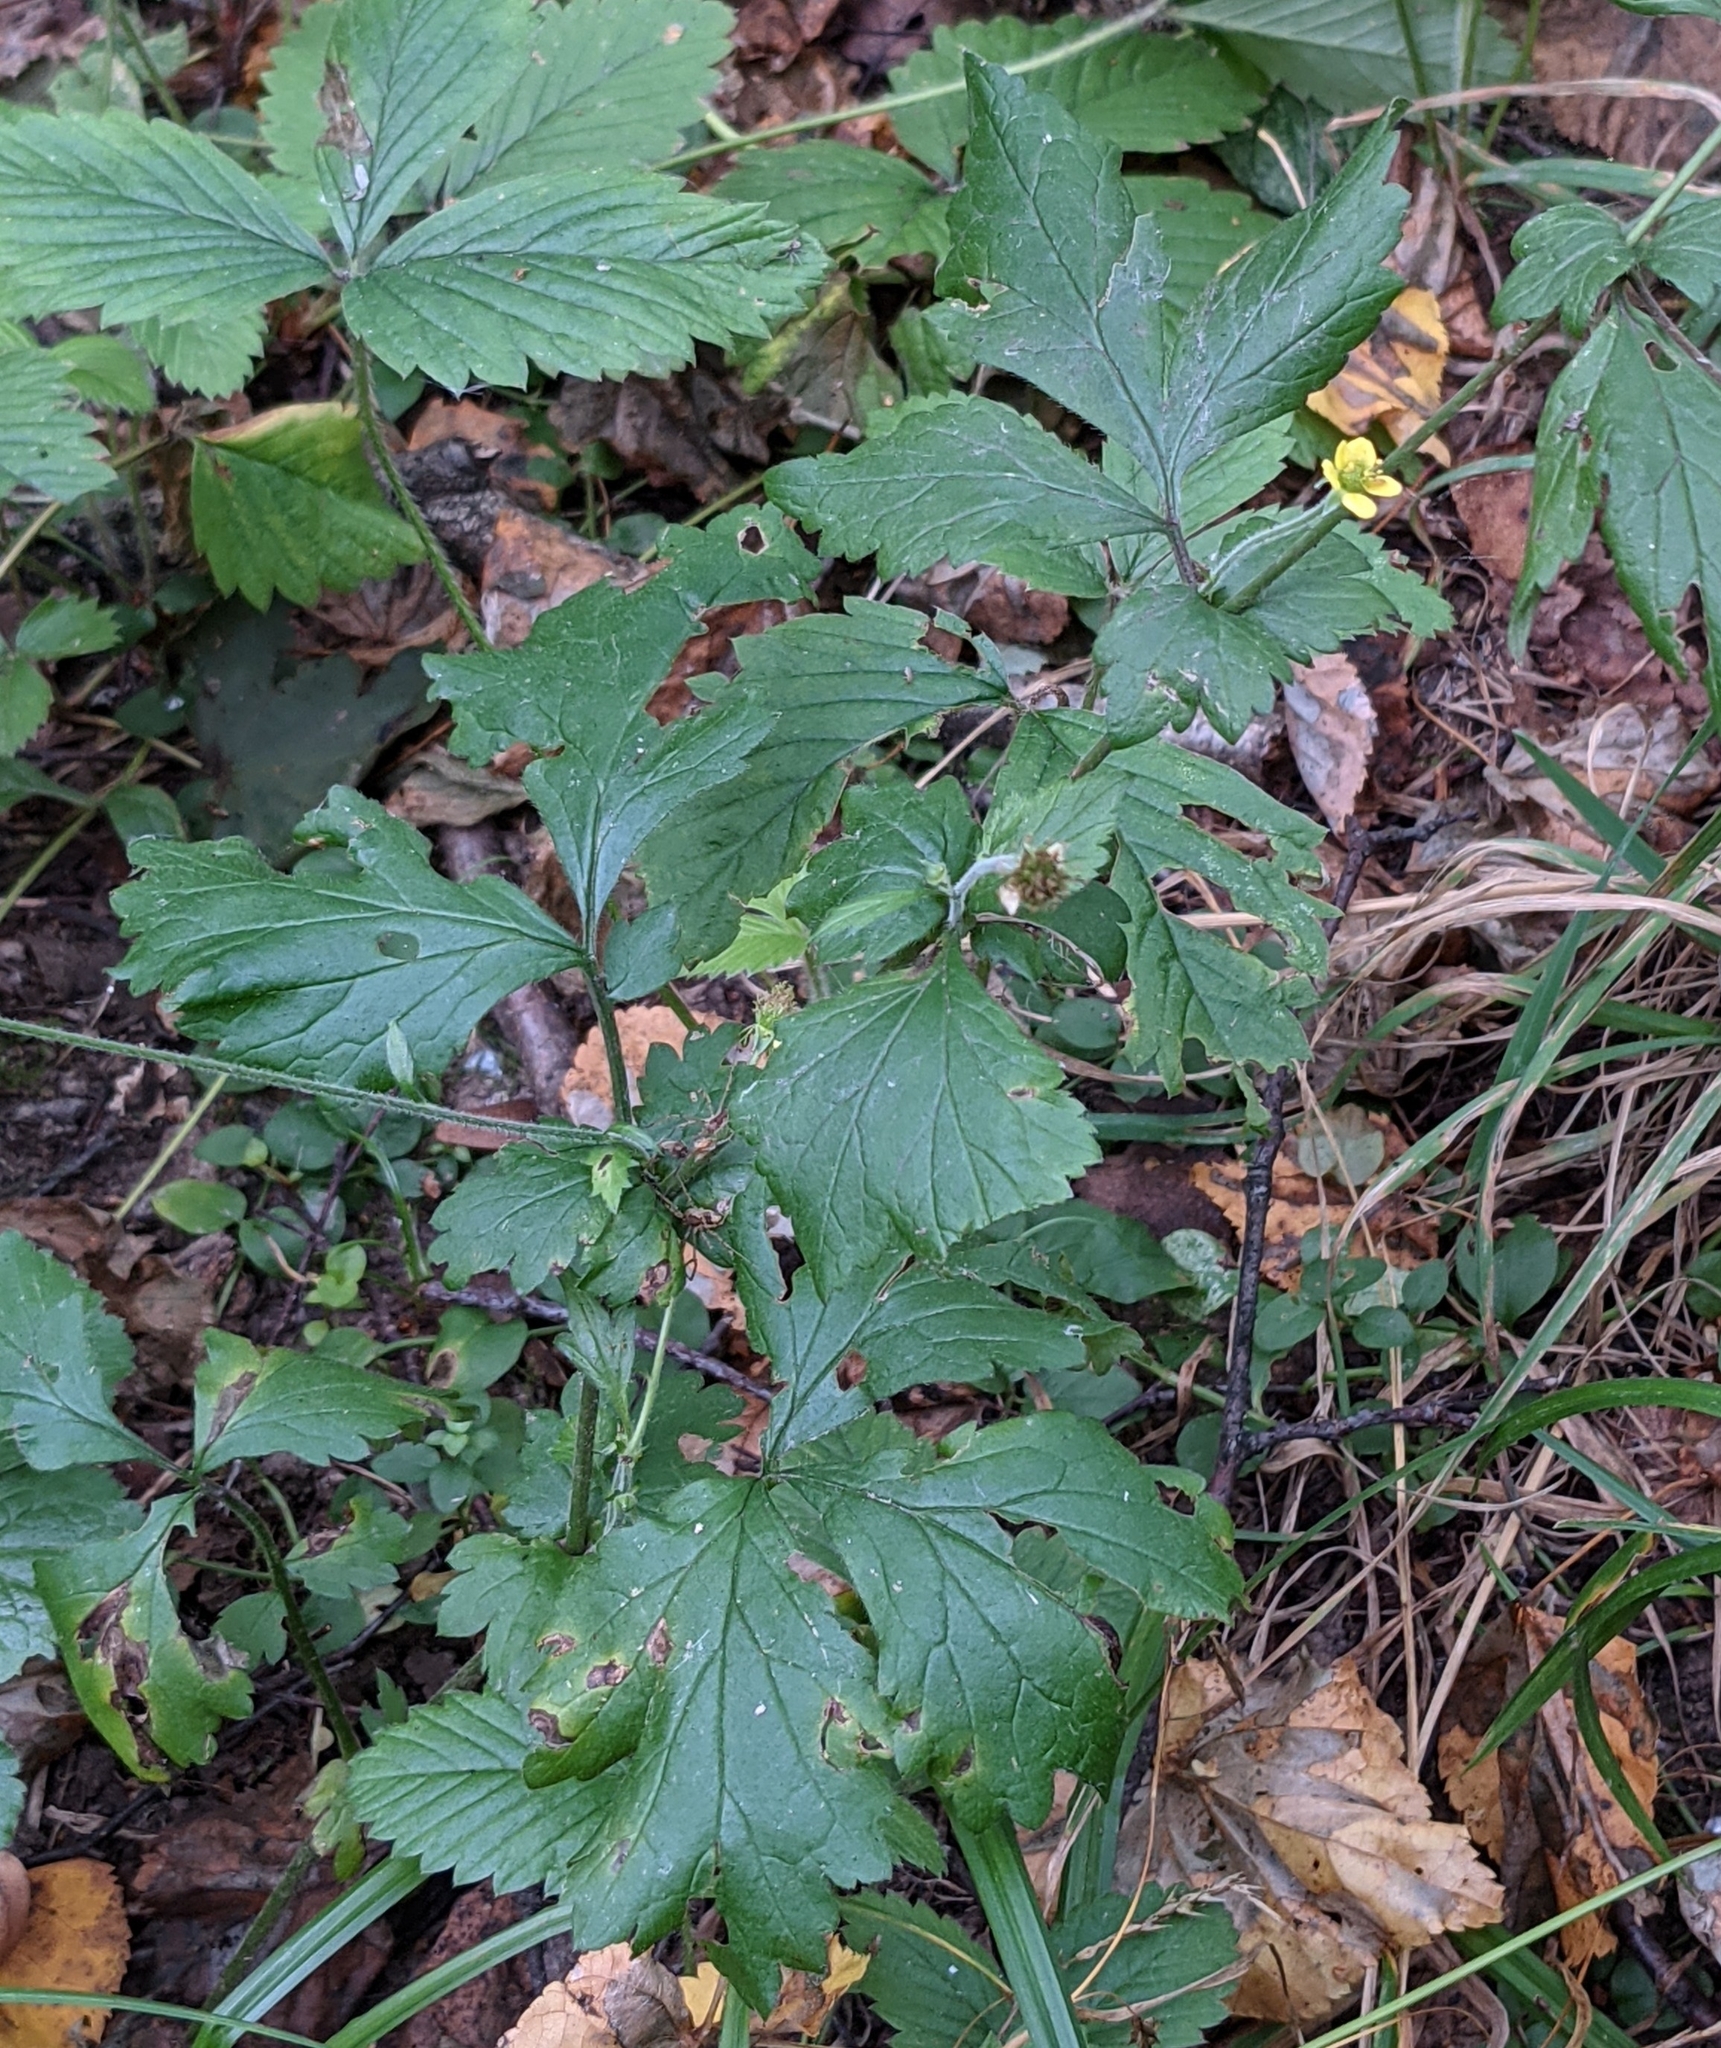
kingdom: Plantae
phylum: Tracheophyta
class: Magnoliopsida
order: Rosales
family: Rosaceae
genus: Geum
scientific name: Geum urbanum
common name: Wood avens
